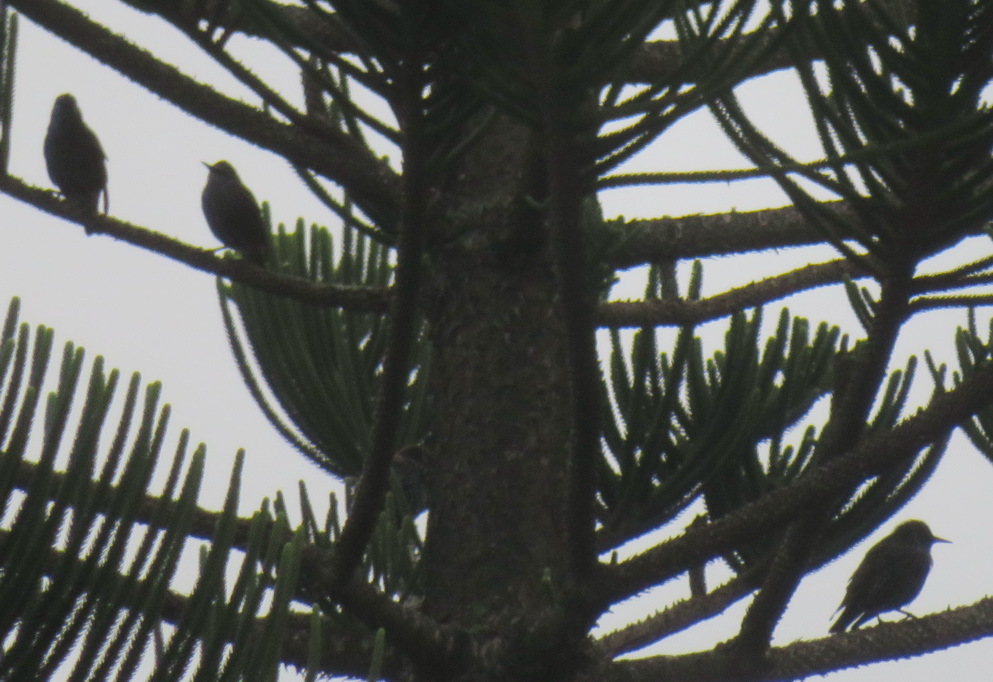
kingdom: Animalia
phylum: Chordata
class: Aves
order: Passeriformes
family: Sturnidae
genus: Sturnus
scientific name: Sturnus vulgaris
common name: Common starling
